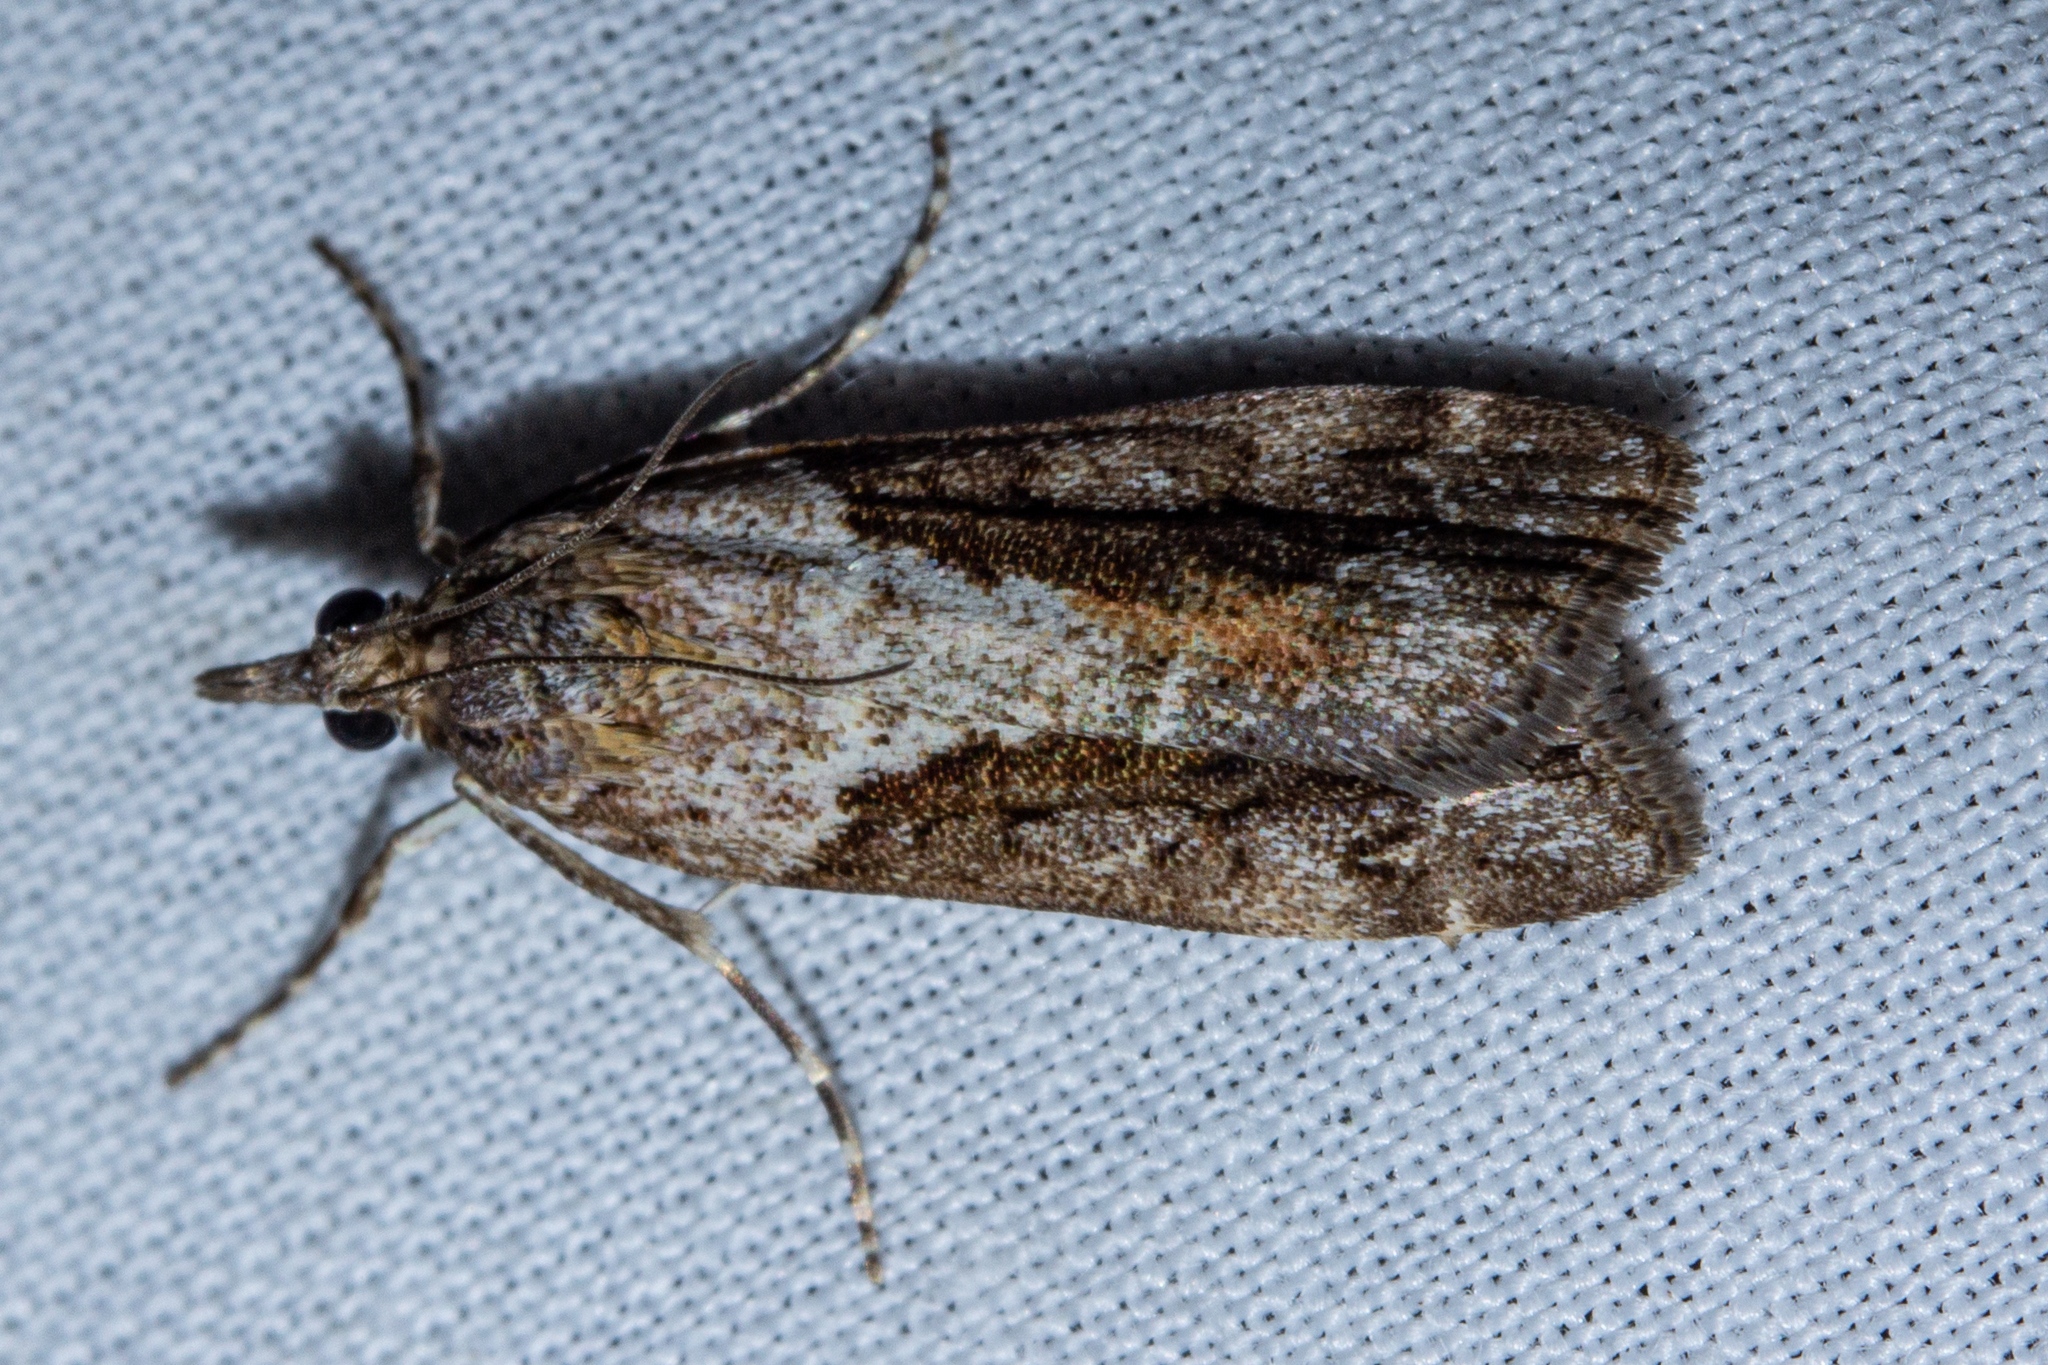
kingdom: Animalia
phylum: Arthropoda
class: Insecta
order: Lepidoptera
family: Crambidae
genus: Eudonia
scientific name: Eudonia submarginalis
